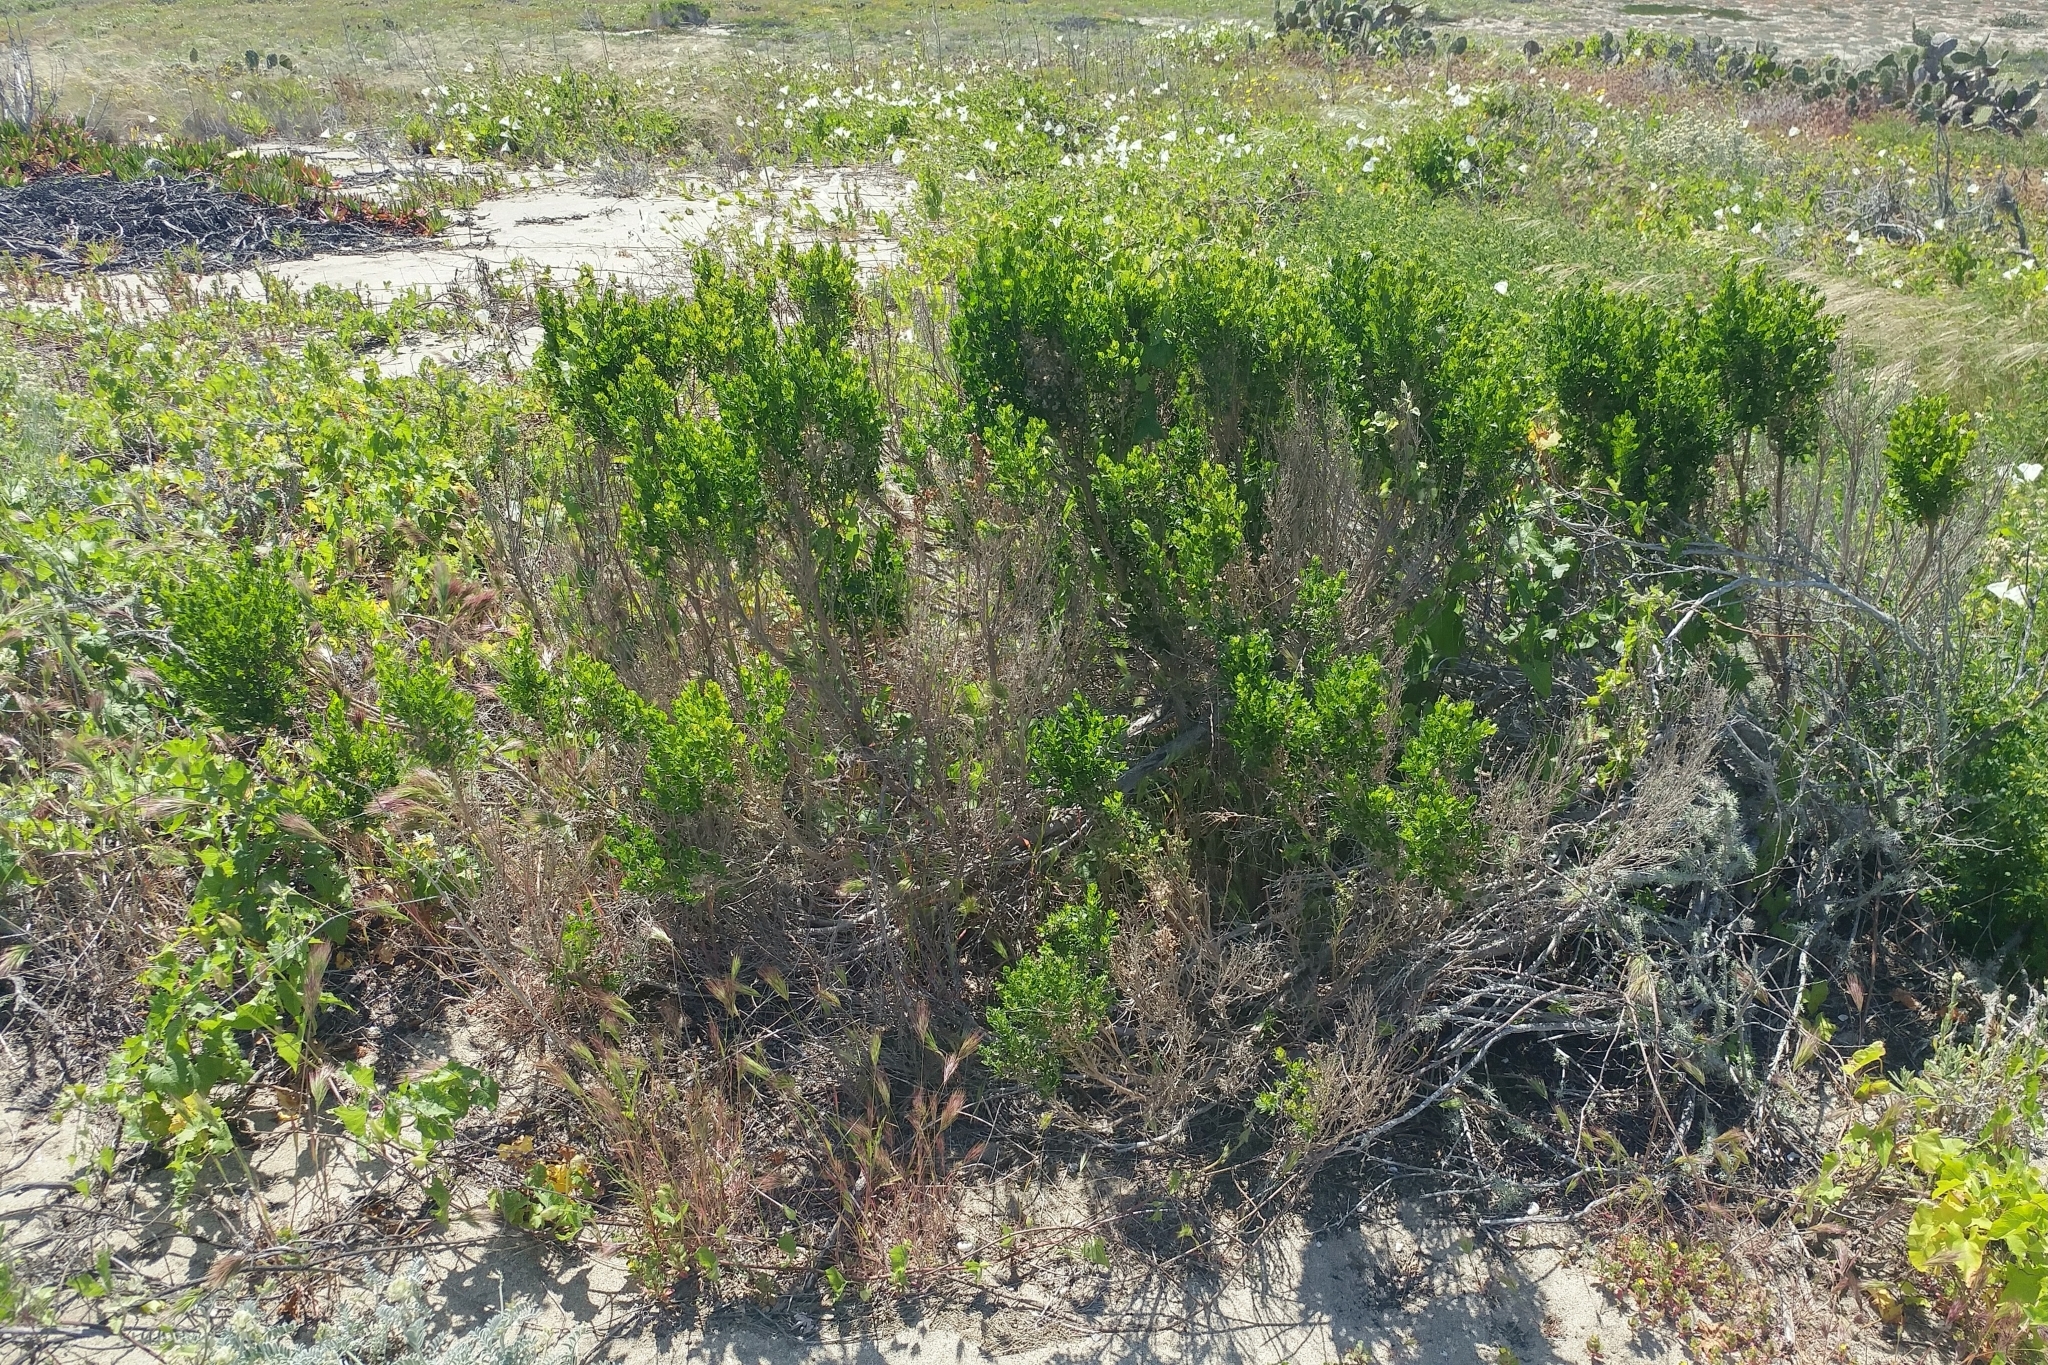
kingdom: Plantae
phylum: Tracheophyta
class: Magnoliopsida
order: Asterales
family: Asteraceae
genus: Baccharis
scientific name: Baccharis pilularis
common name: Coyotebrush
